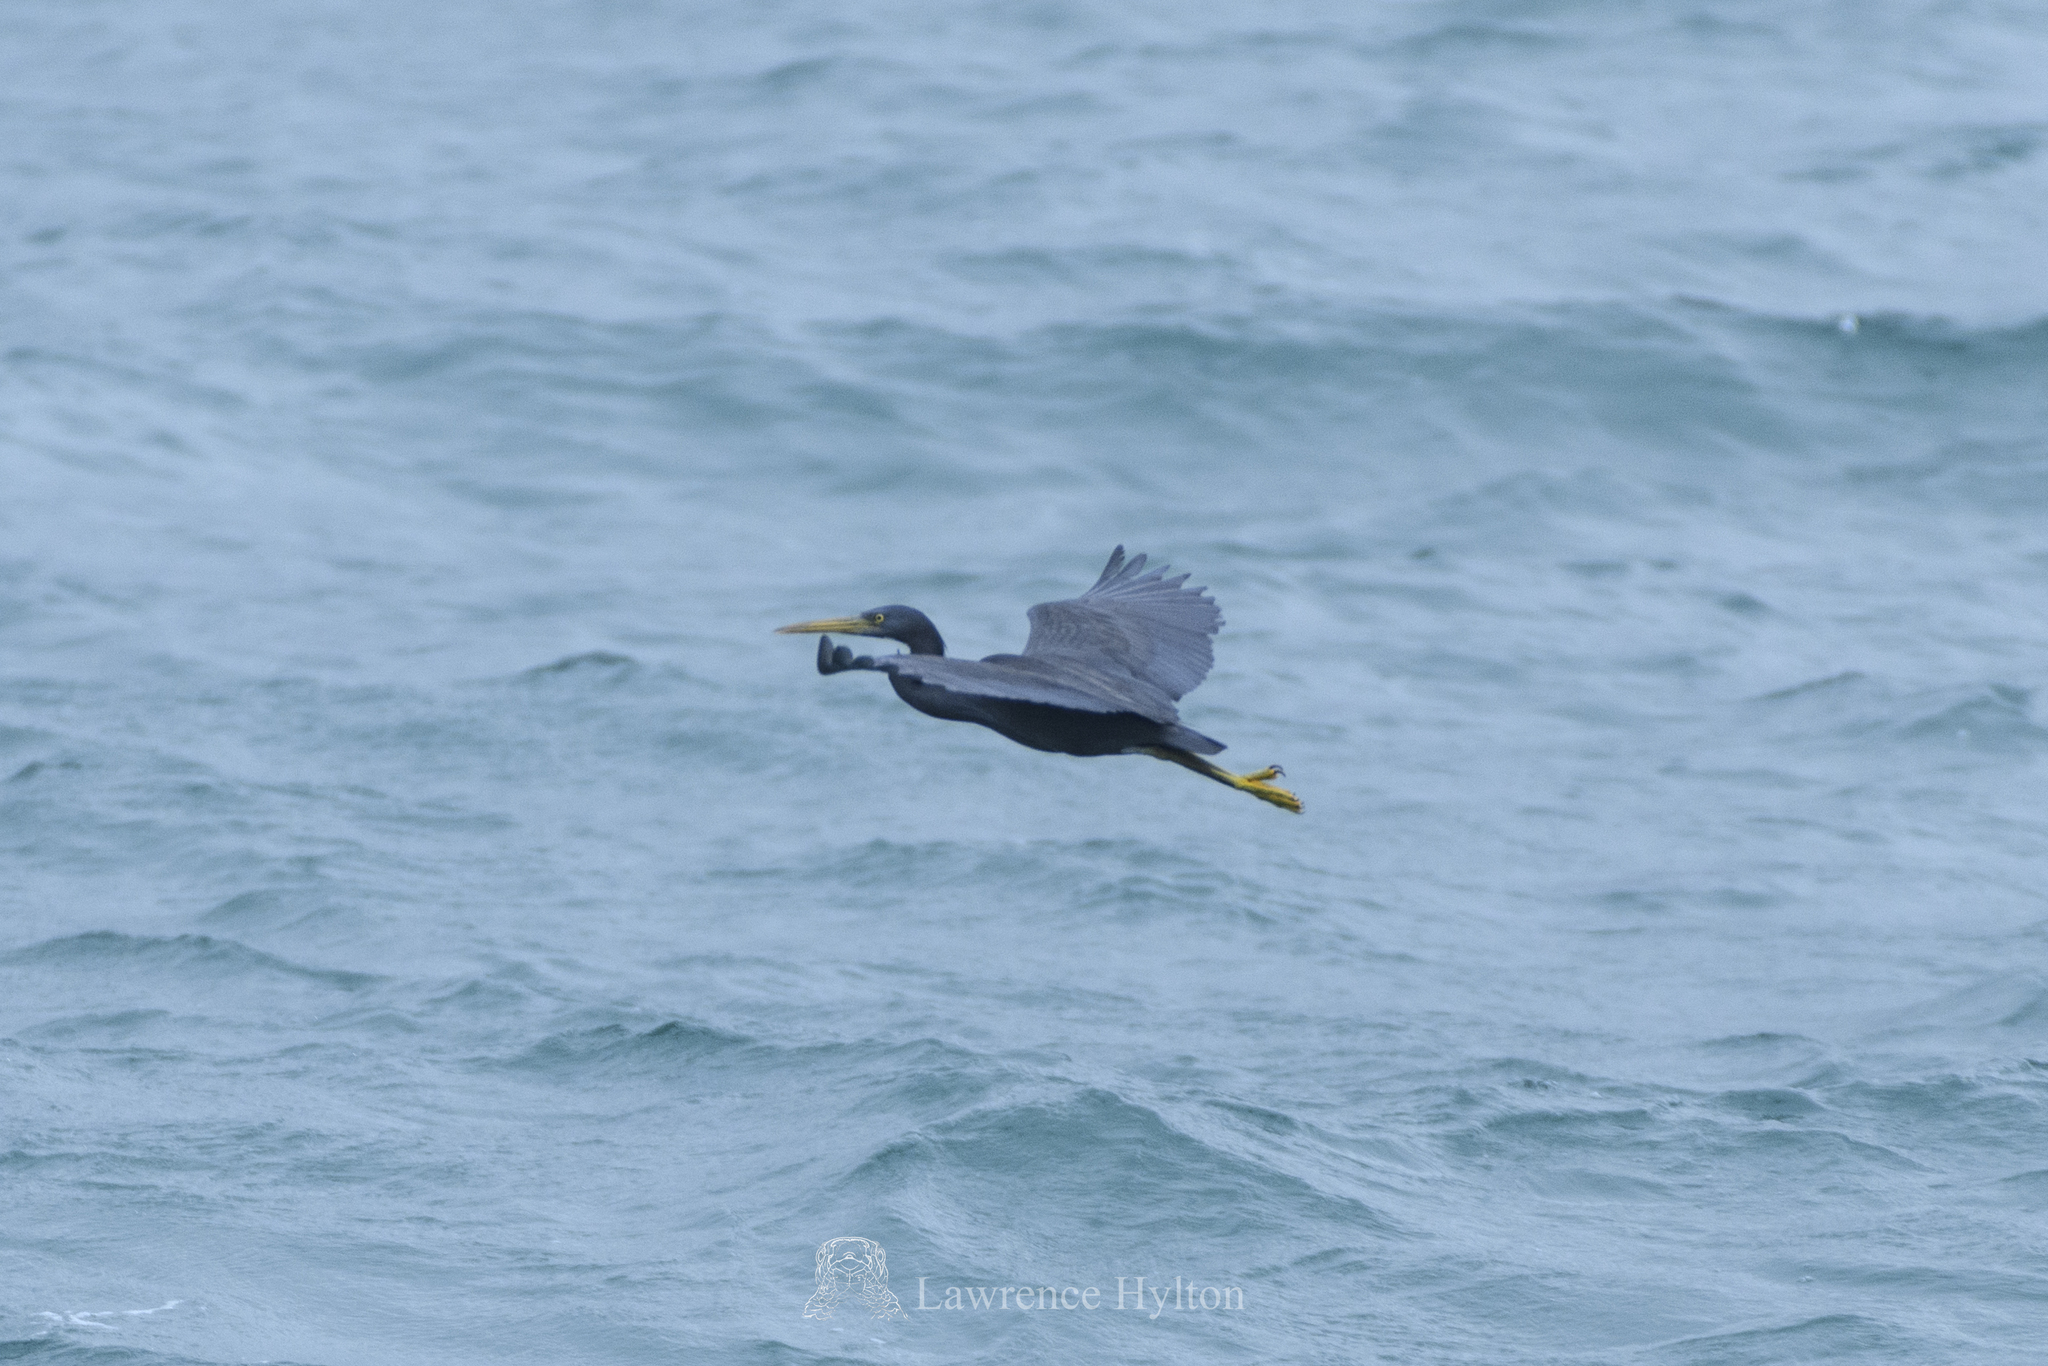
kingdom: Animalia
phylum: Chordata
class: Aves
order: Pelecaniformes
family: Ardeidae
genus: Egretta
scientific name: Egretta sacra
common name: Pacific reef heron
